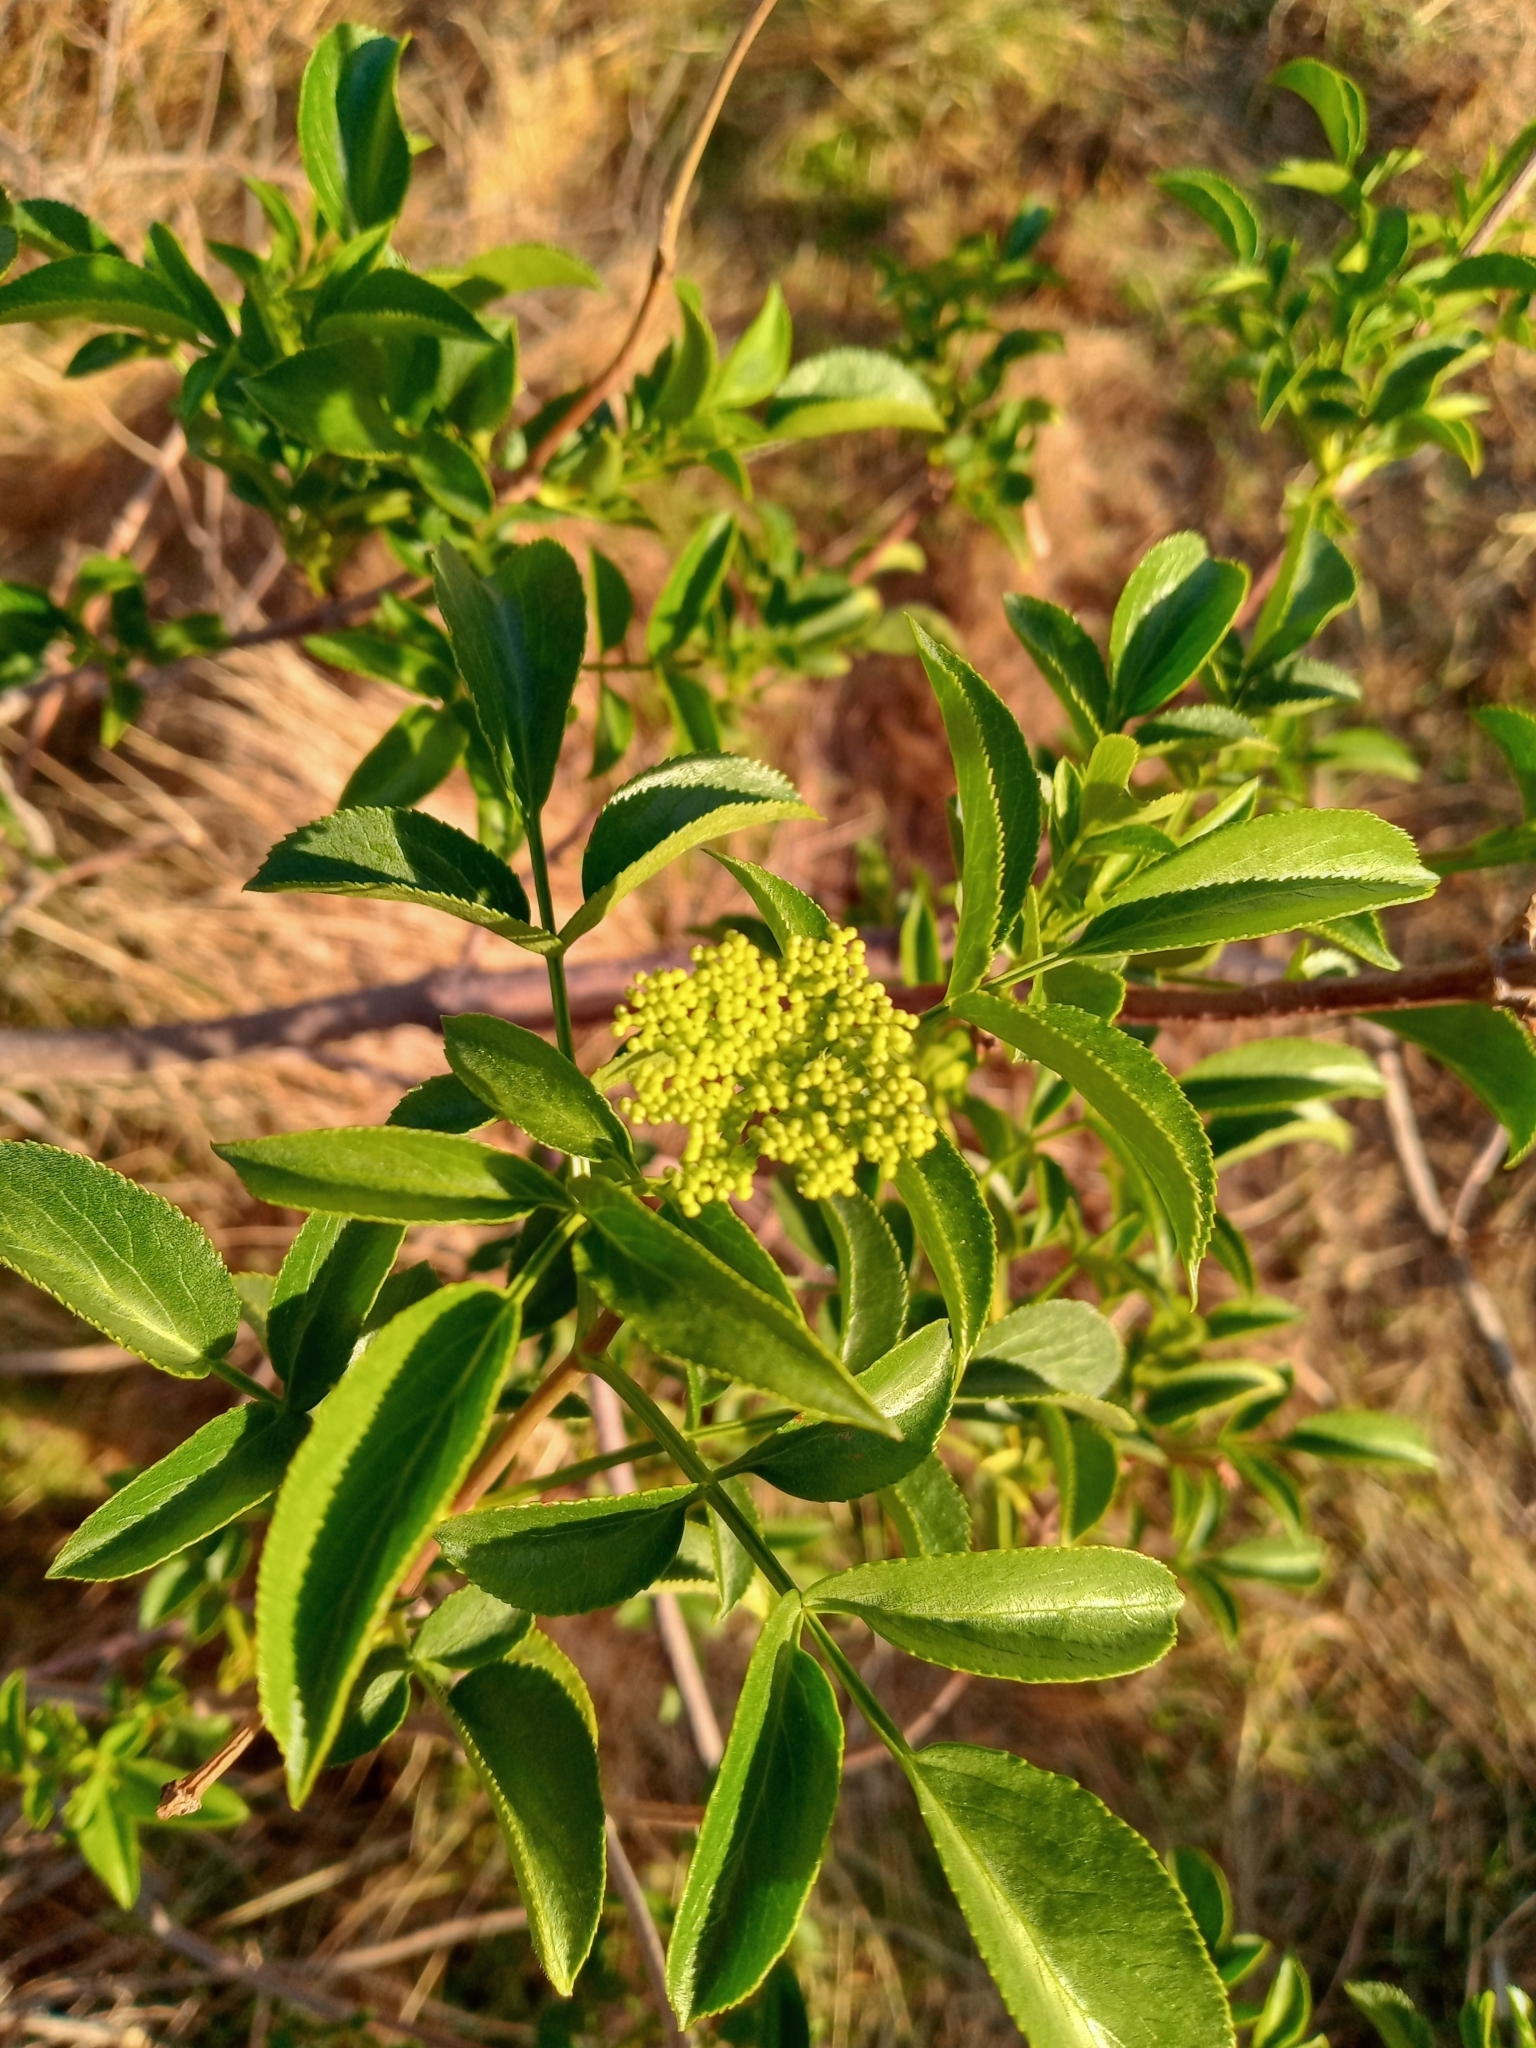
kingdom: Plantae
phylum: Tracheophyta
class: Magnoliopsida
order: Dipsacales
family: Viburnaceae
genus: Sambucus
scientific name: Sambucus cerulea
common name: Blue elder
